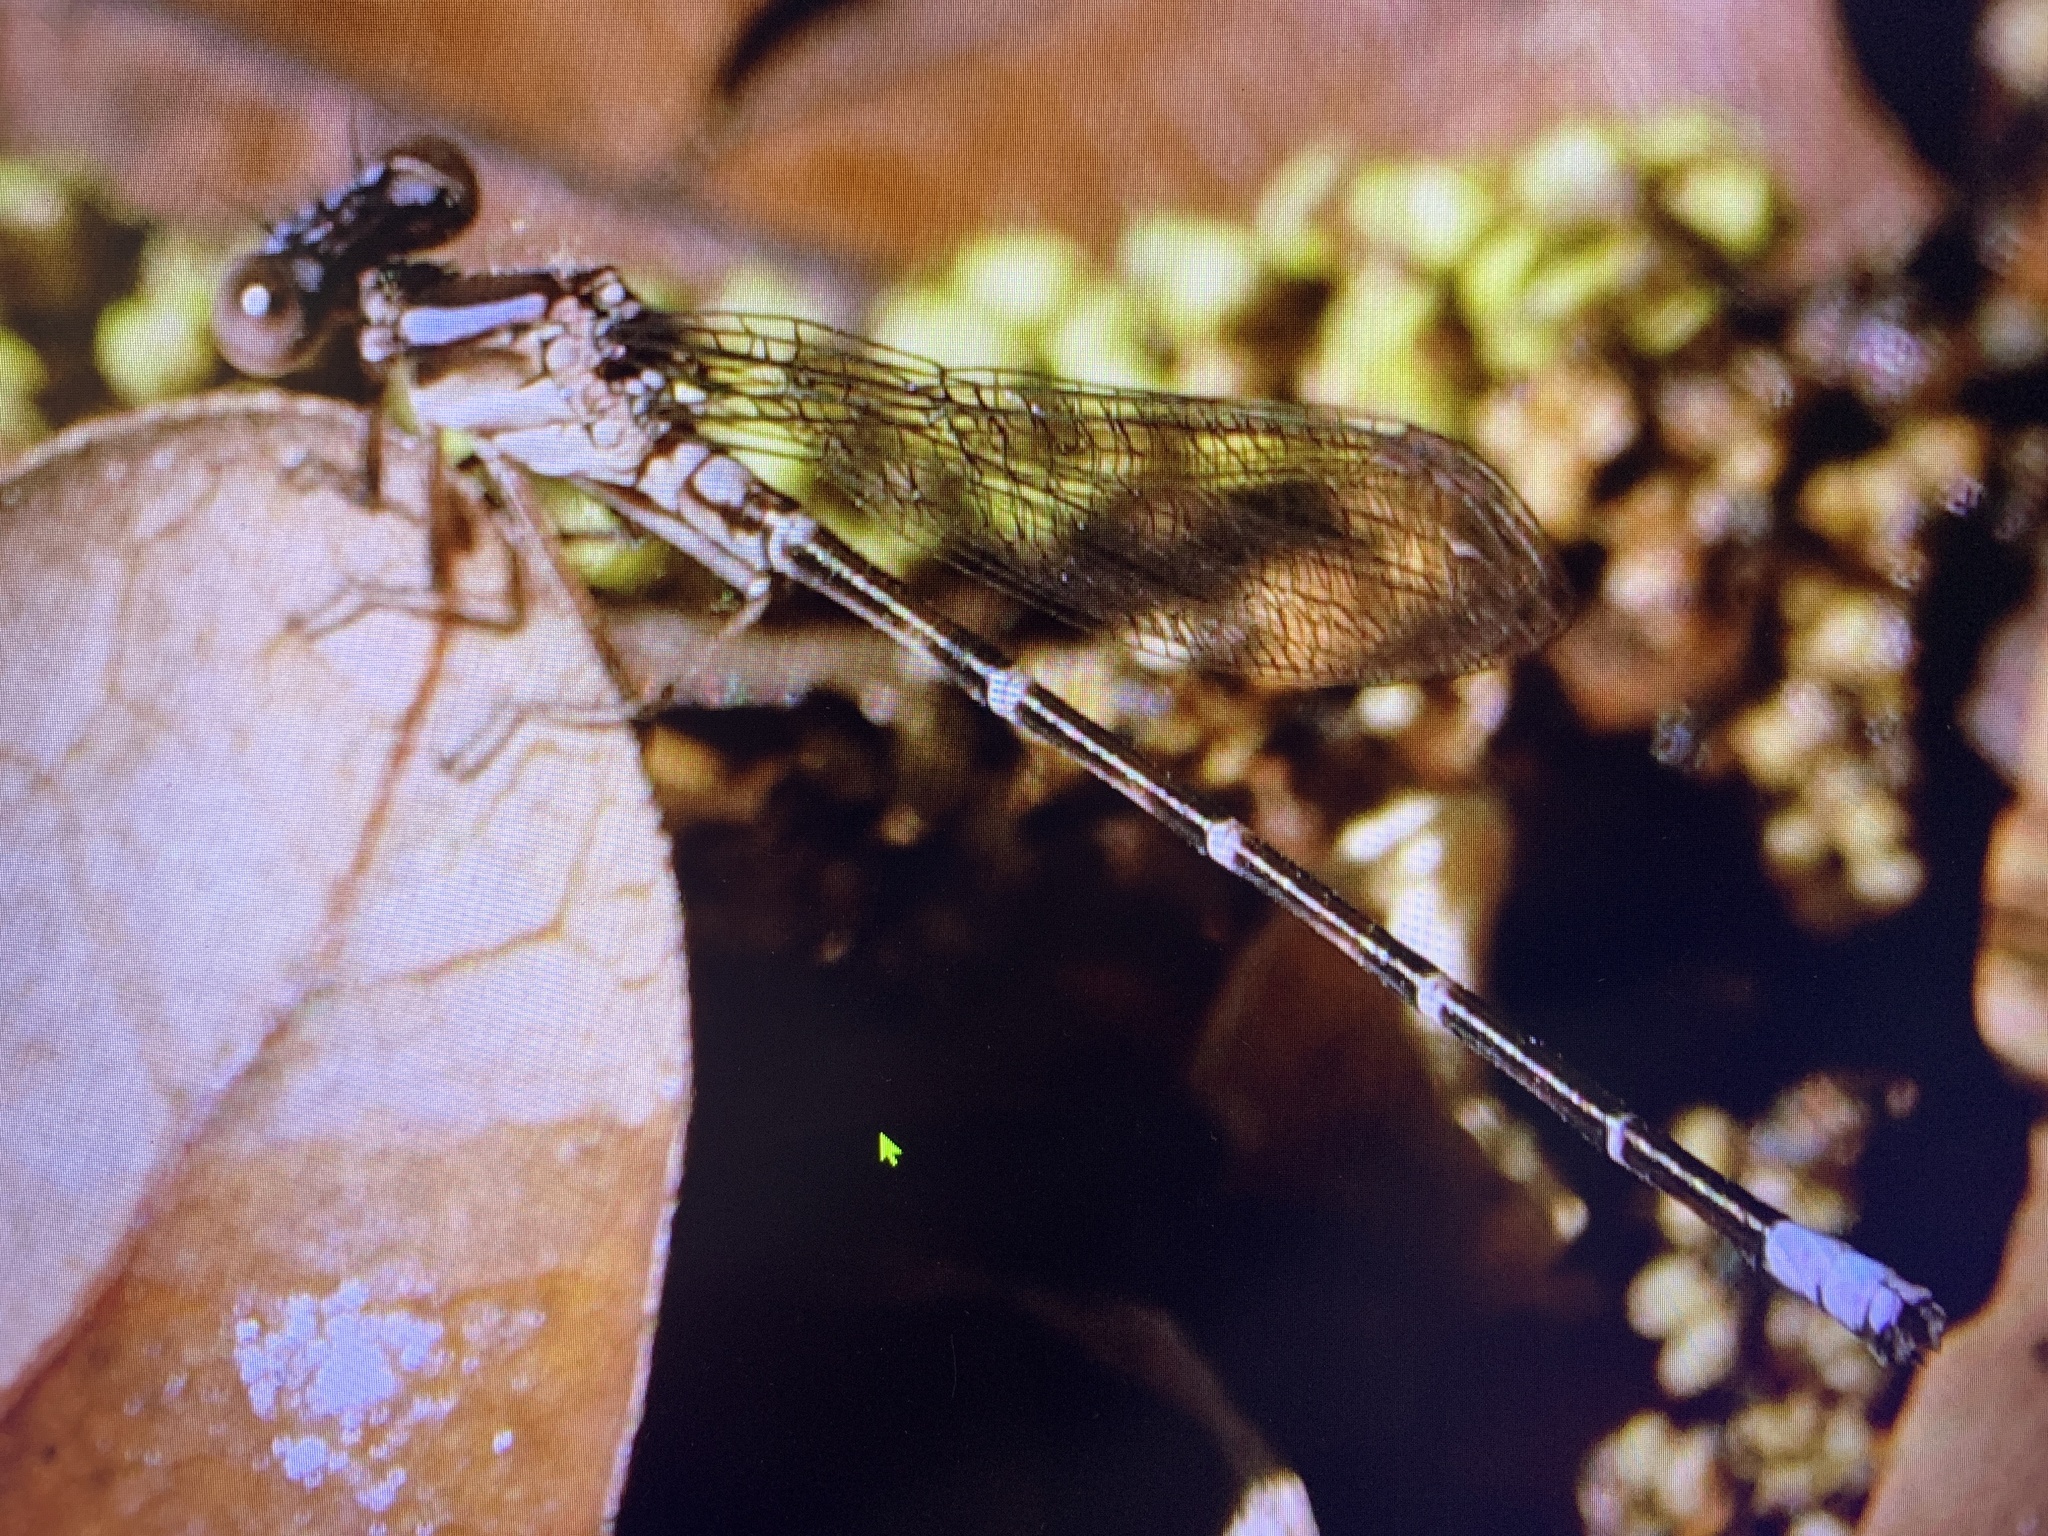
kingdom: Animalia
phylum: Arthropoda
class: Insecta
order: Odonata
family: Coenagrionidae
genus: Argia
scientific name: Argia sedula
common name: Blue-ringed dancer
